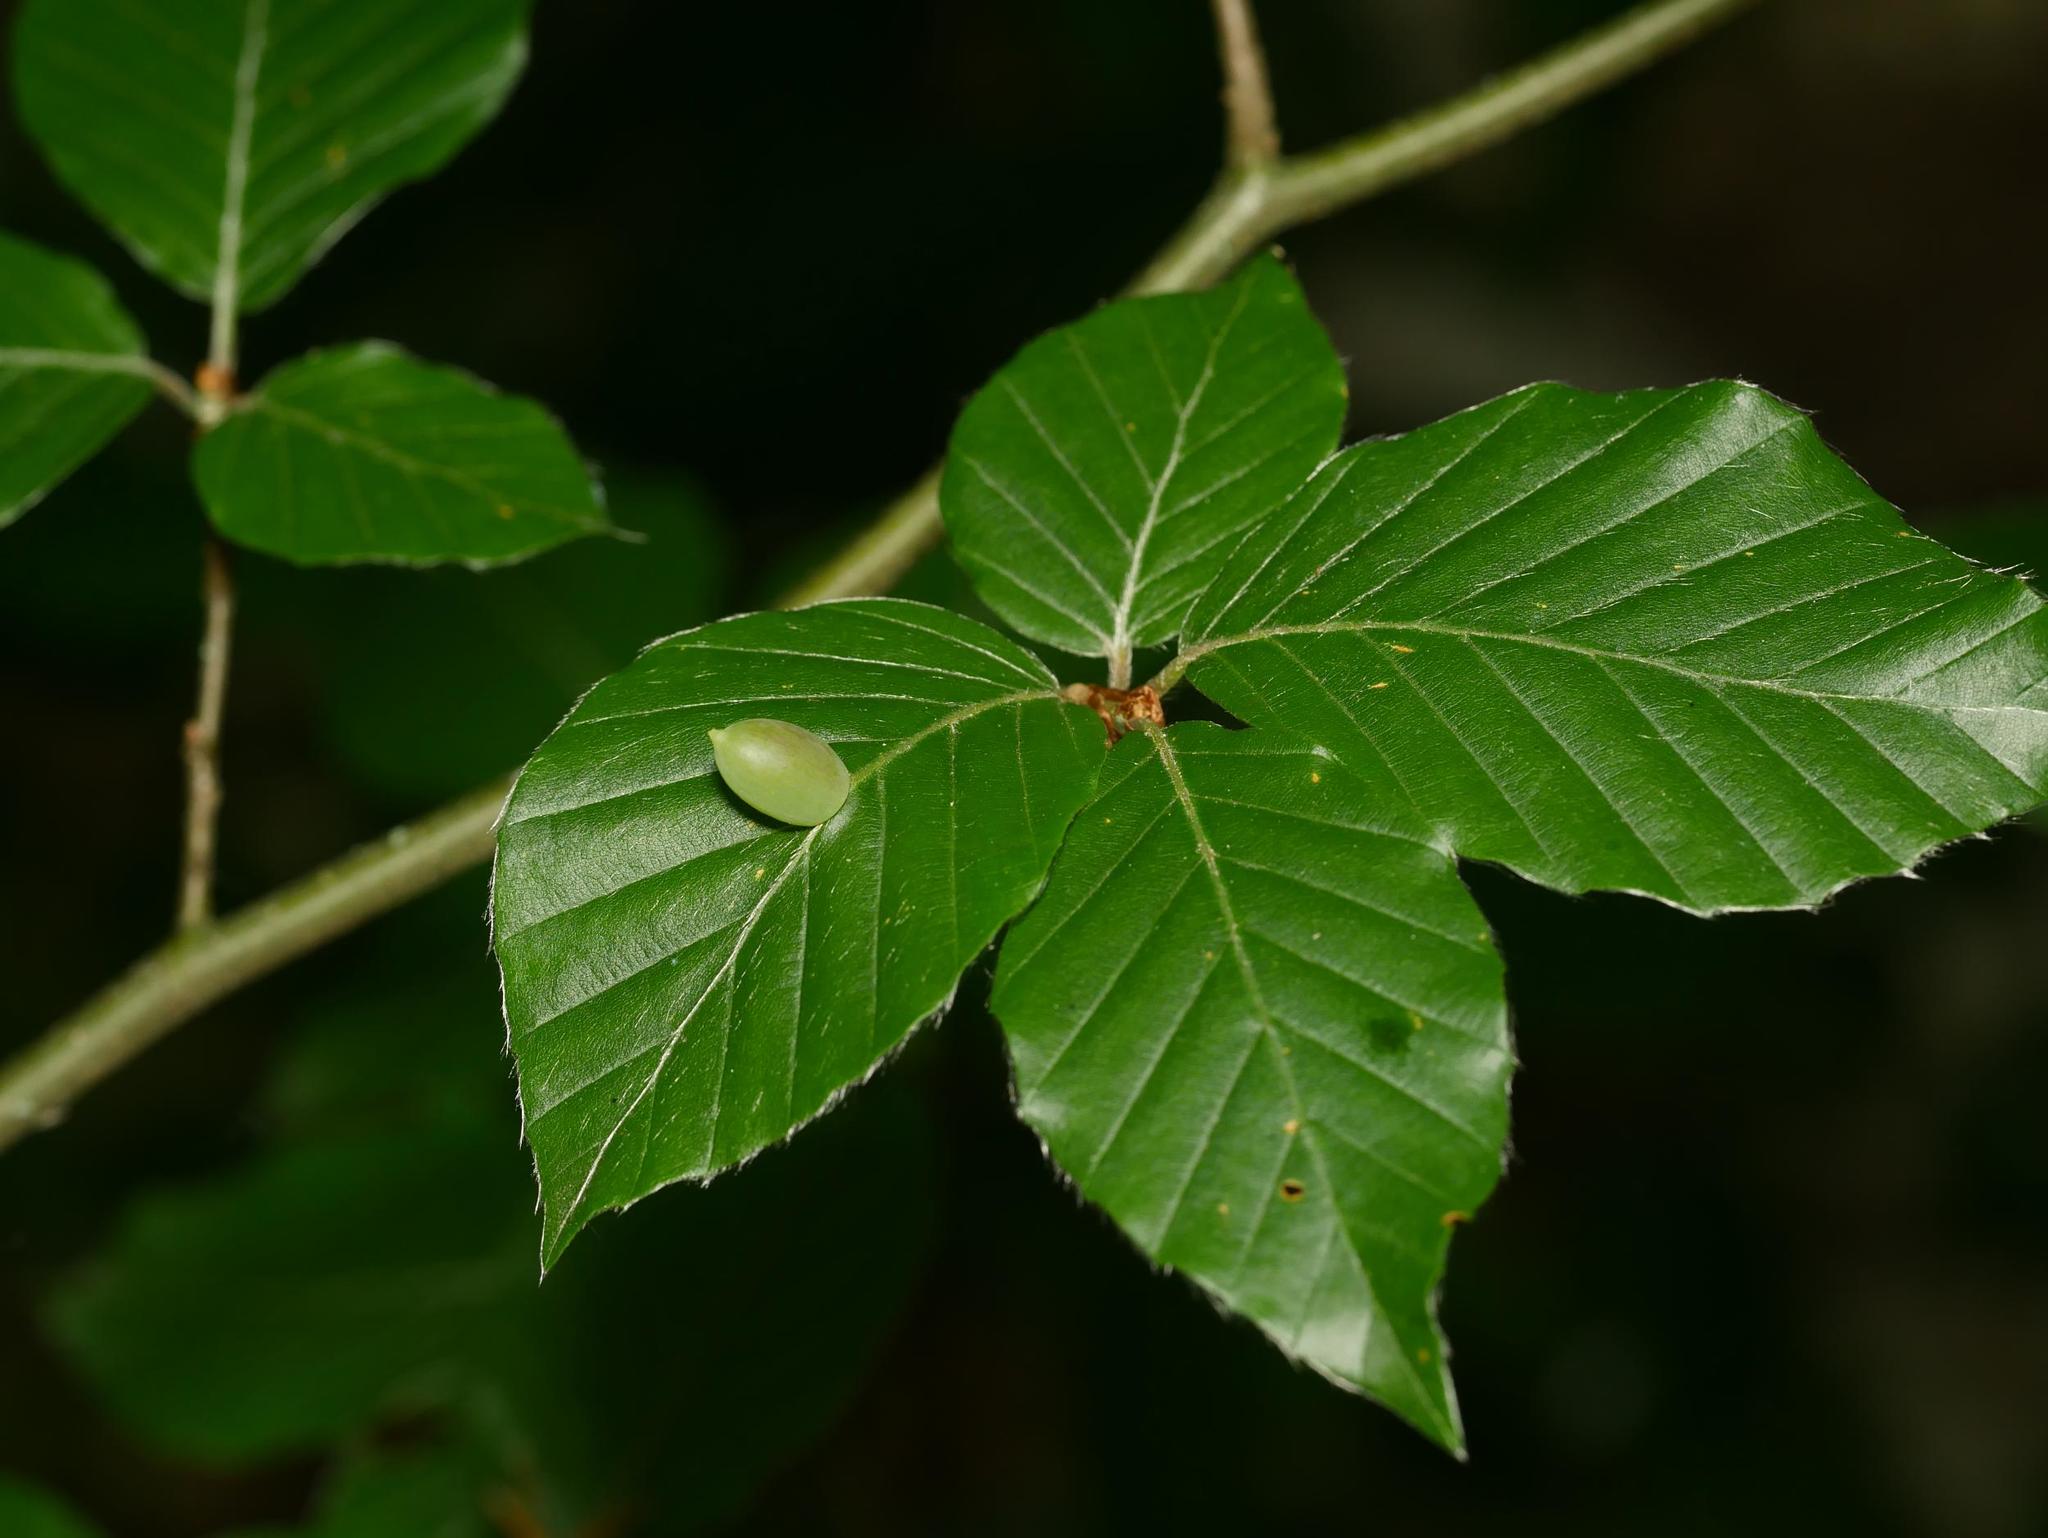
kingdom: Plantae
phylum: Tracheophyta
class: Magnoliopsida
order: Fagales
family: Fagaceae
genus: Fagus
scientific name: Fagus sylvatica
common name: Beech
